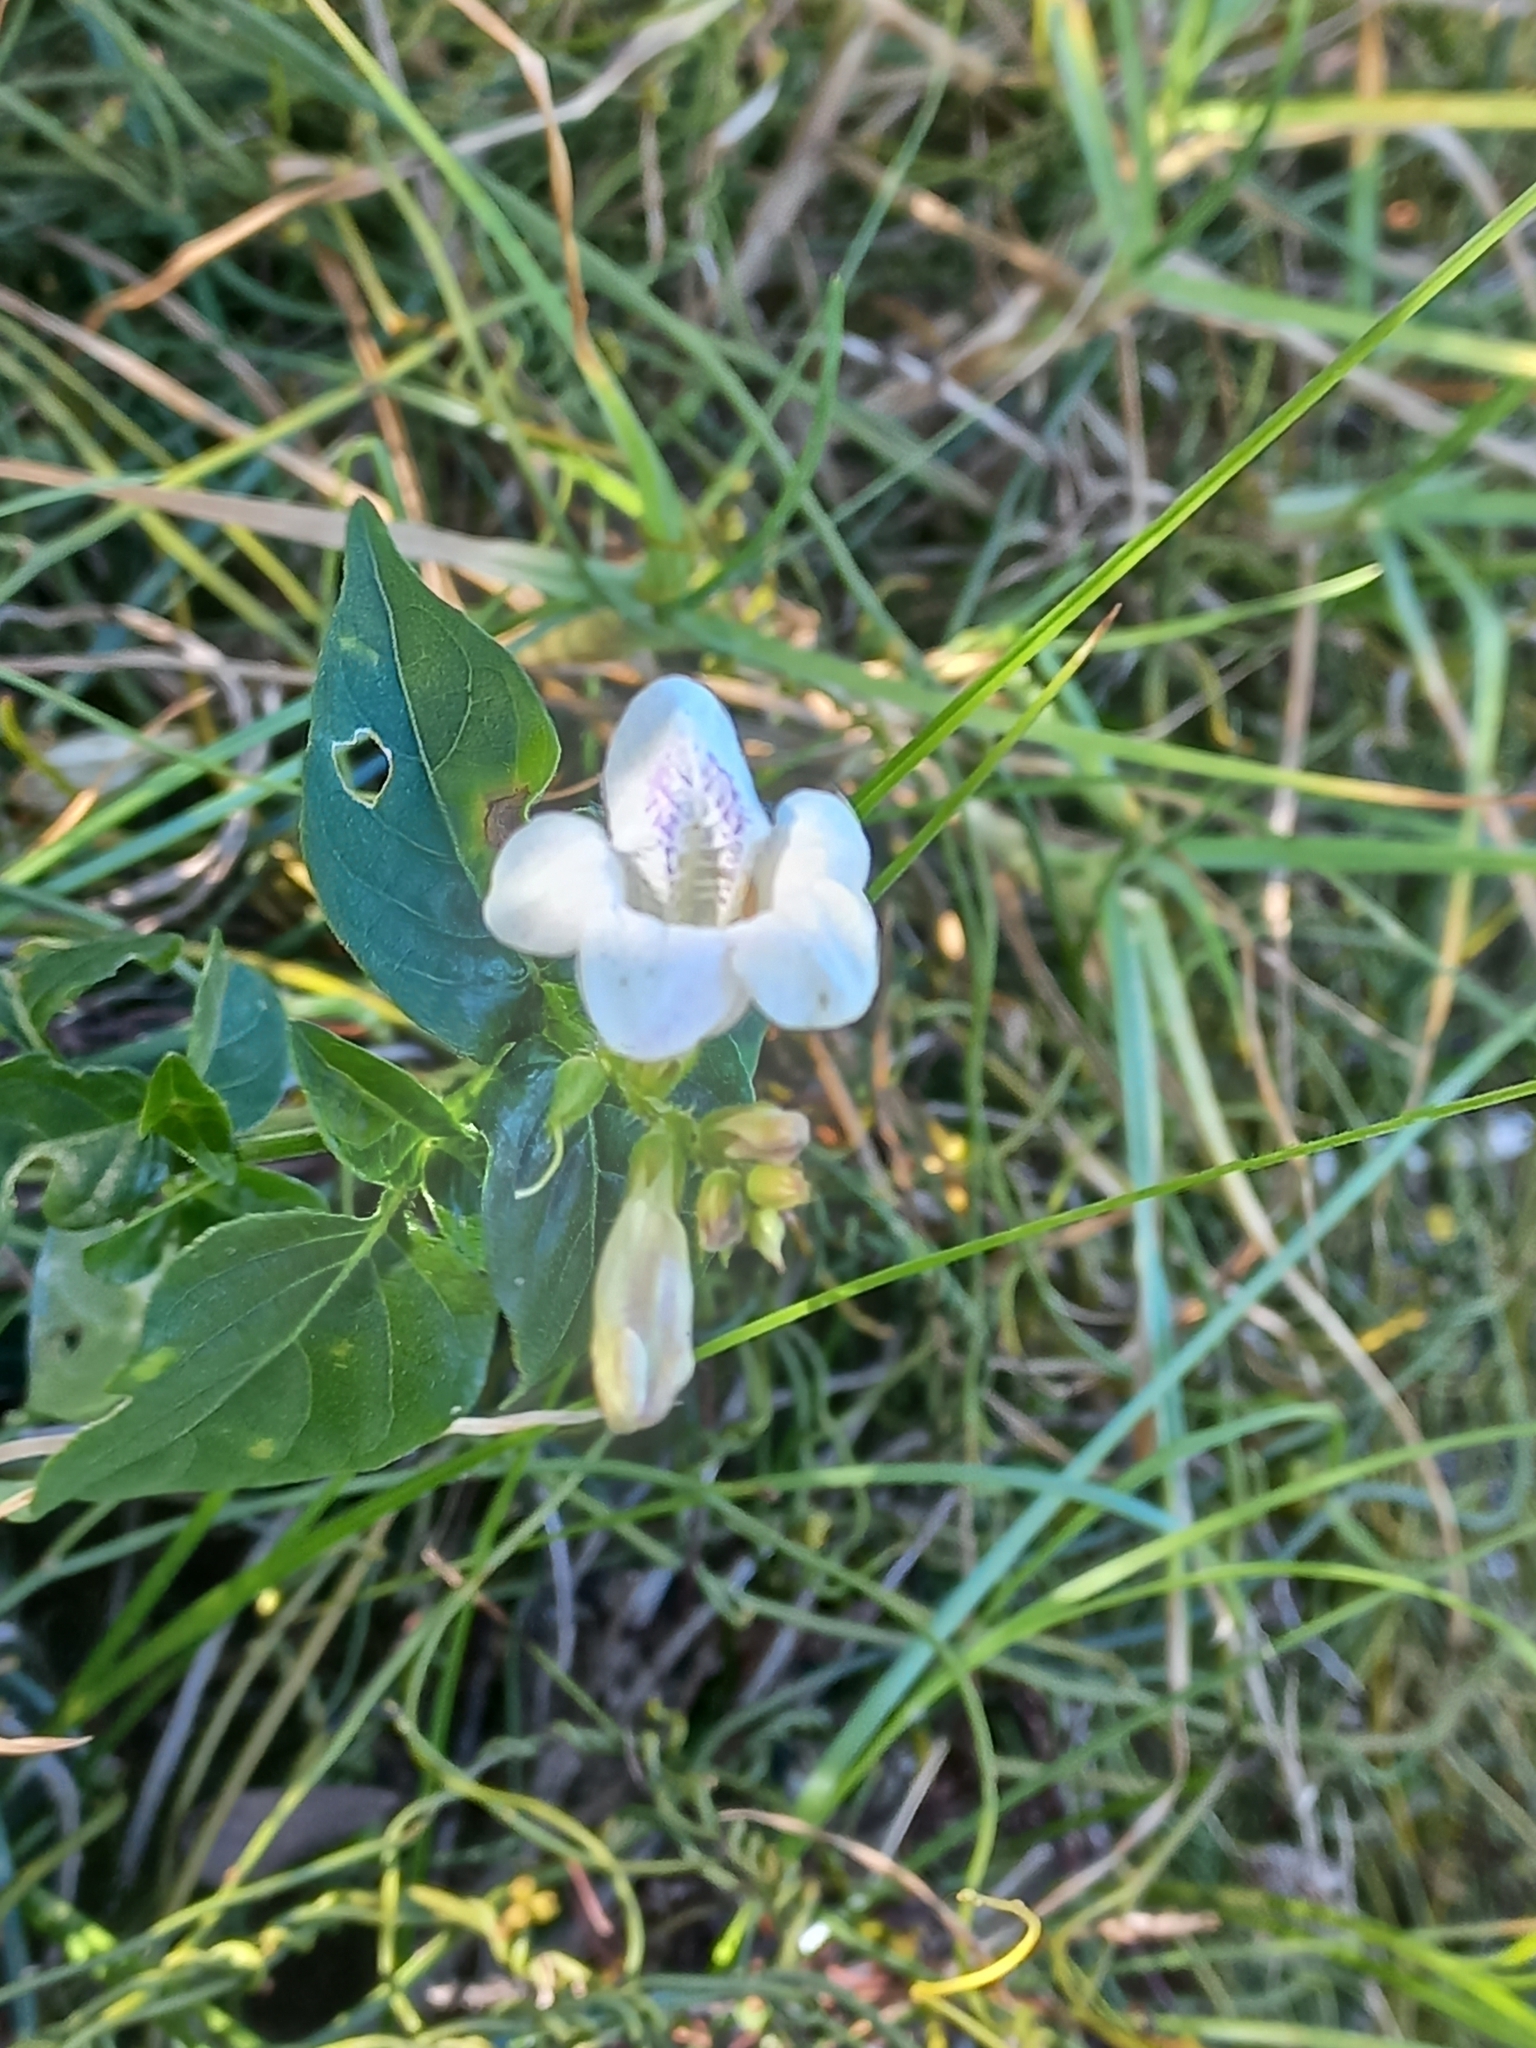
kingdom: Plantae
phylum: Tracheophyta
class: Magnoliopsida
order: Lamiales
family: Acanthaceae
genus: Asystasia
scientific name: Asystasia intrusa
